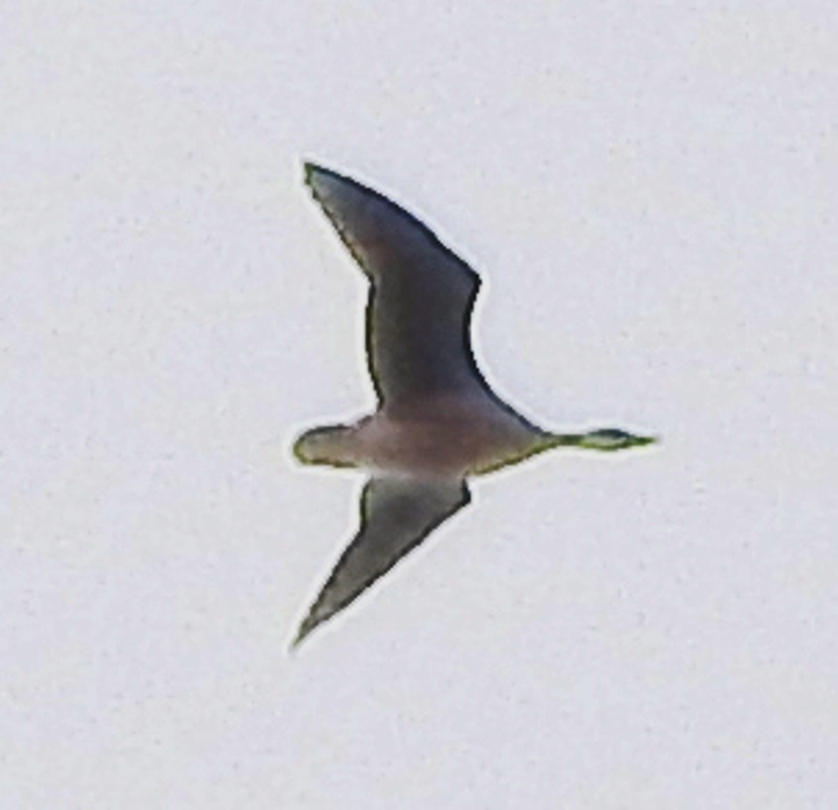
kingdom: Animalia
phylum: Chordata
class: Aves
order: Anseriformes
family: Anatidae
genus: Anser
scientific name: Anser cygnoides
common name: Swan goose
